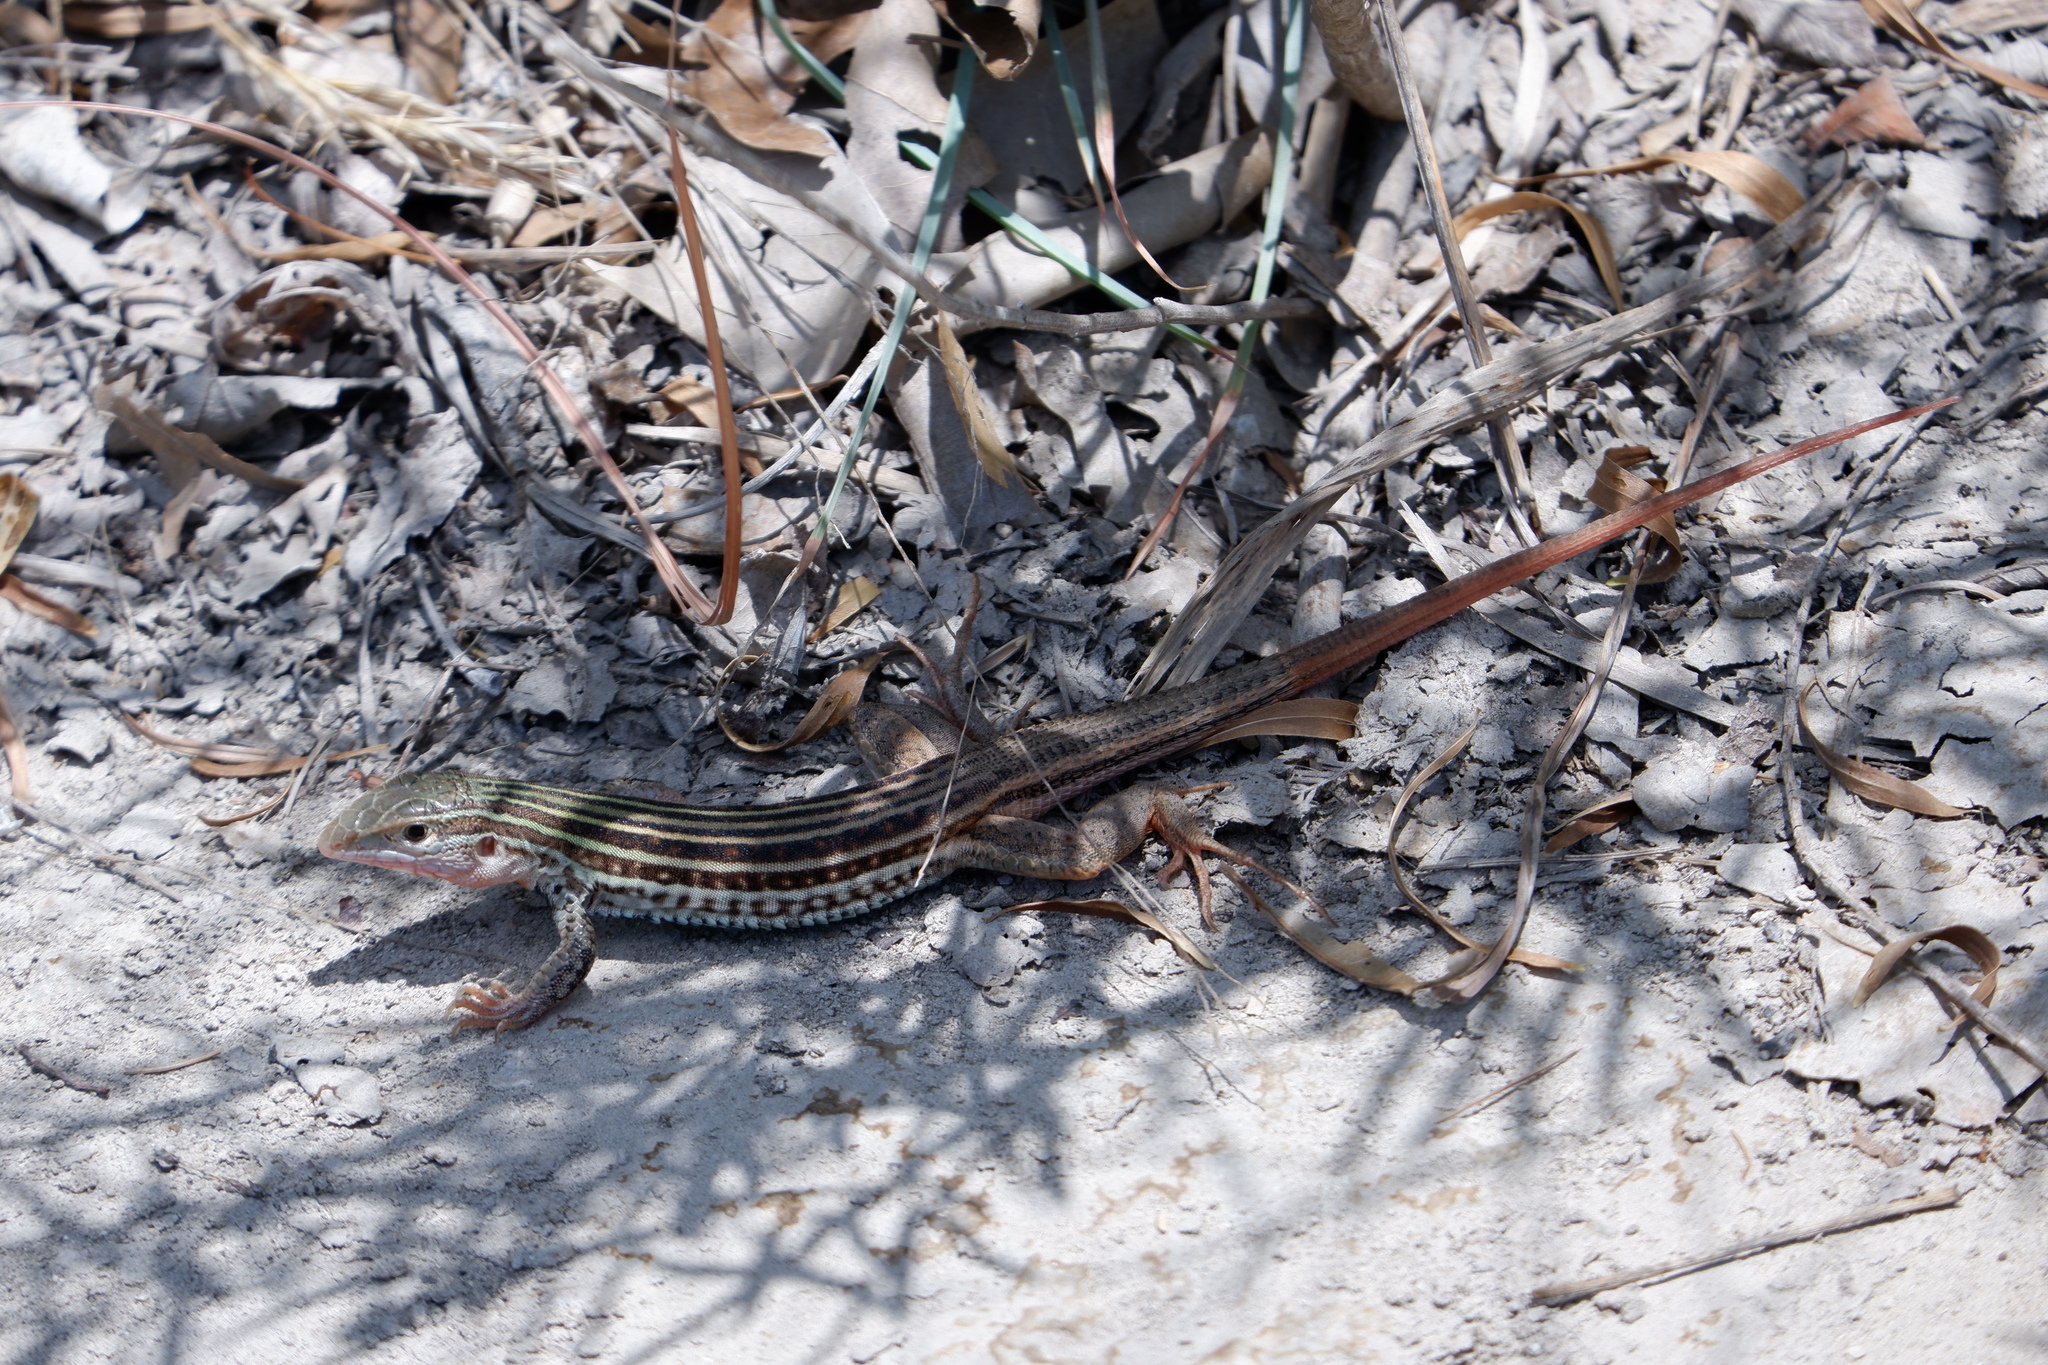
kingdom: Animalia
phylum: Chordata
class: Squamata
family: Teiidae
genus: Aspidoscelis
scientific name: Aspidoscelis gularis
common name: Eastern spotted whiptail
